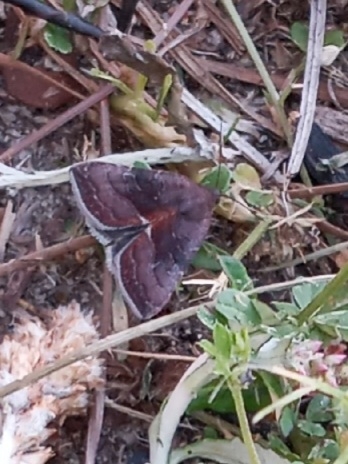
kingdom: Animalia
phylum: Arthropoda
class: Insecta
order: Lepidoptera
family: Noctuidae
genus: Galgula
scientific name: Galgula partita
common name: Wedgeling
